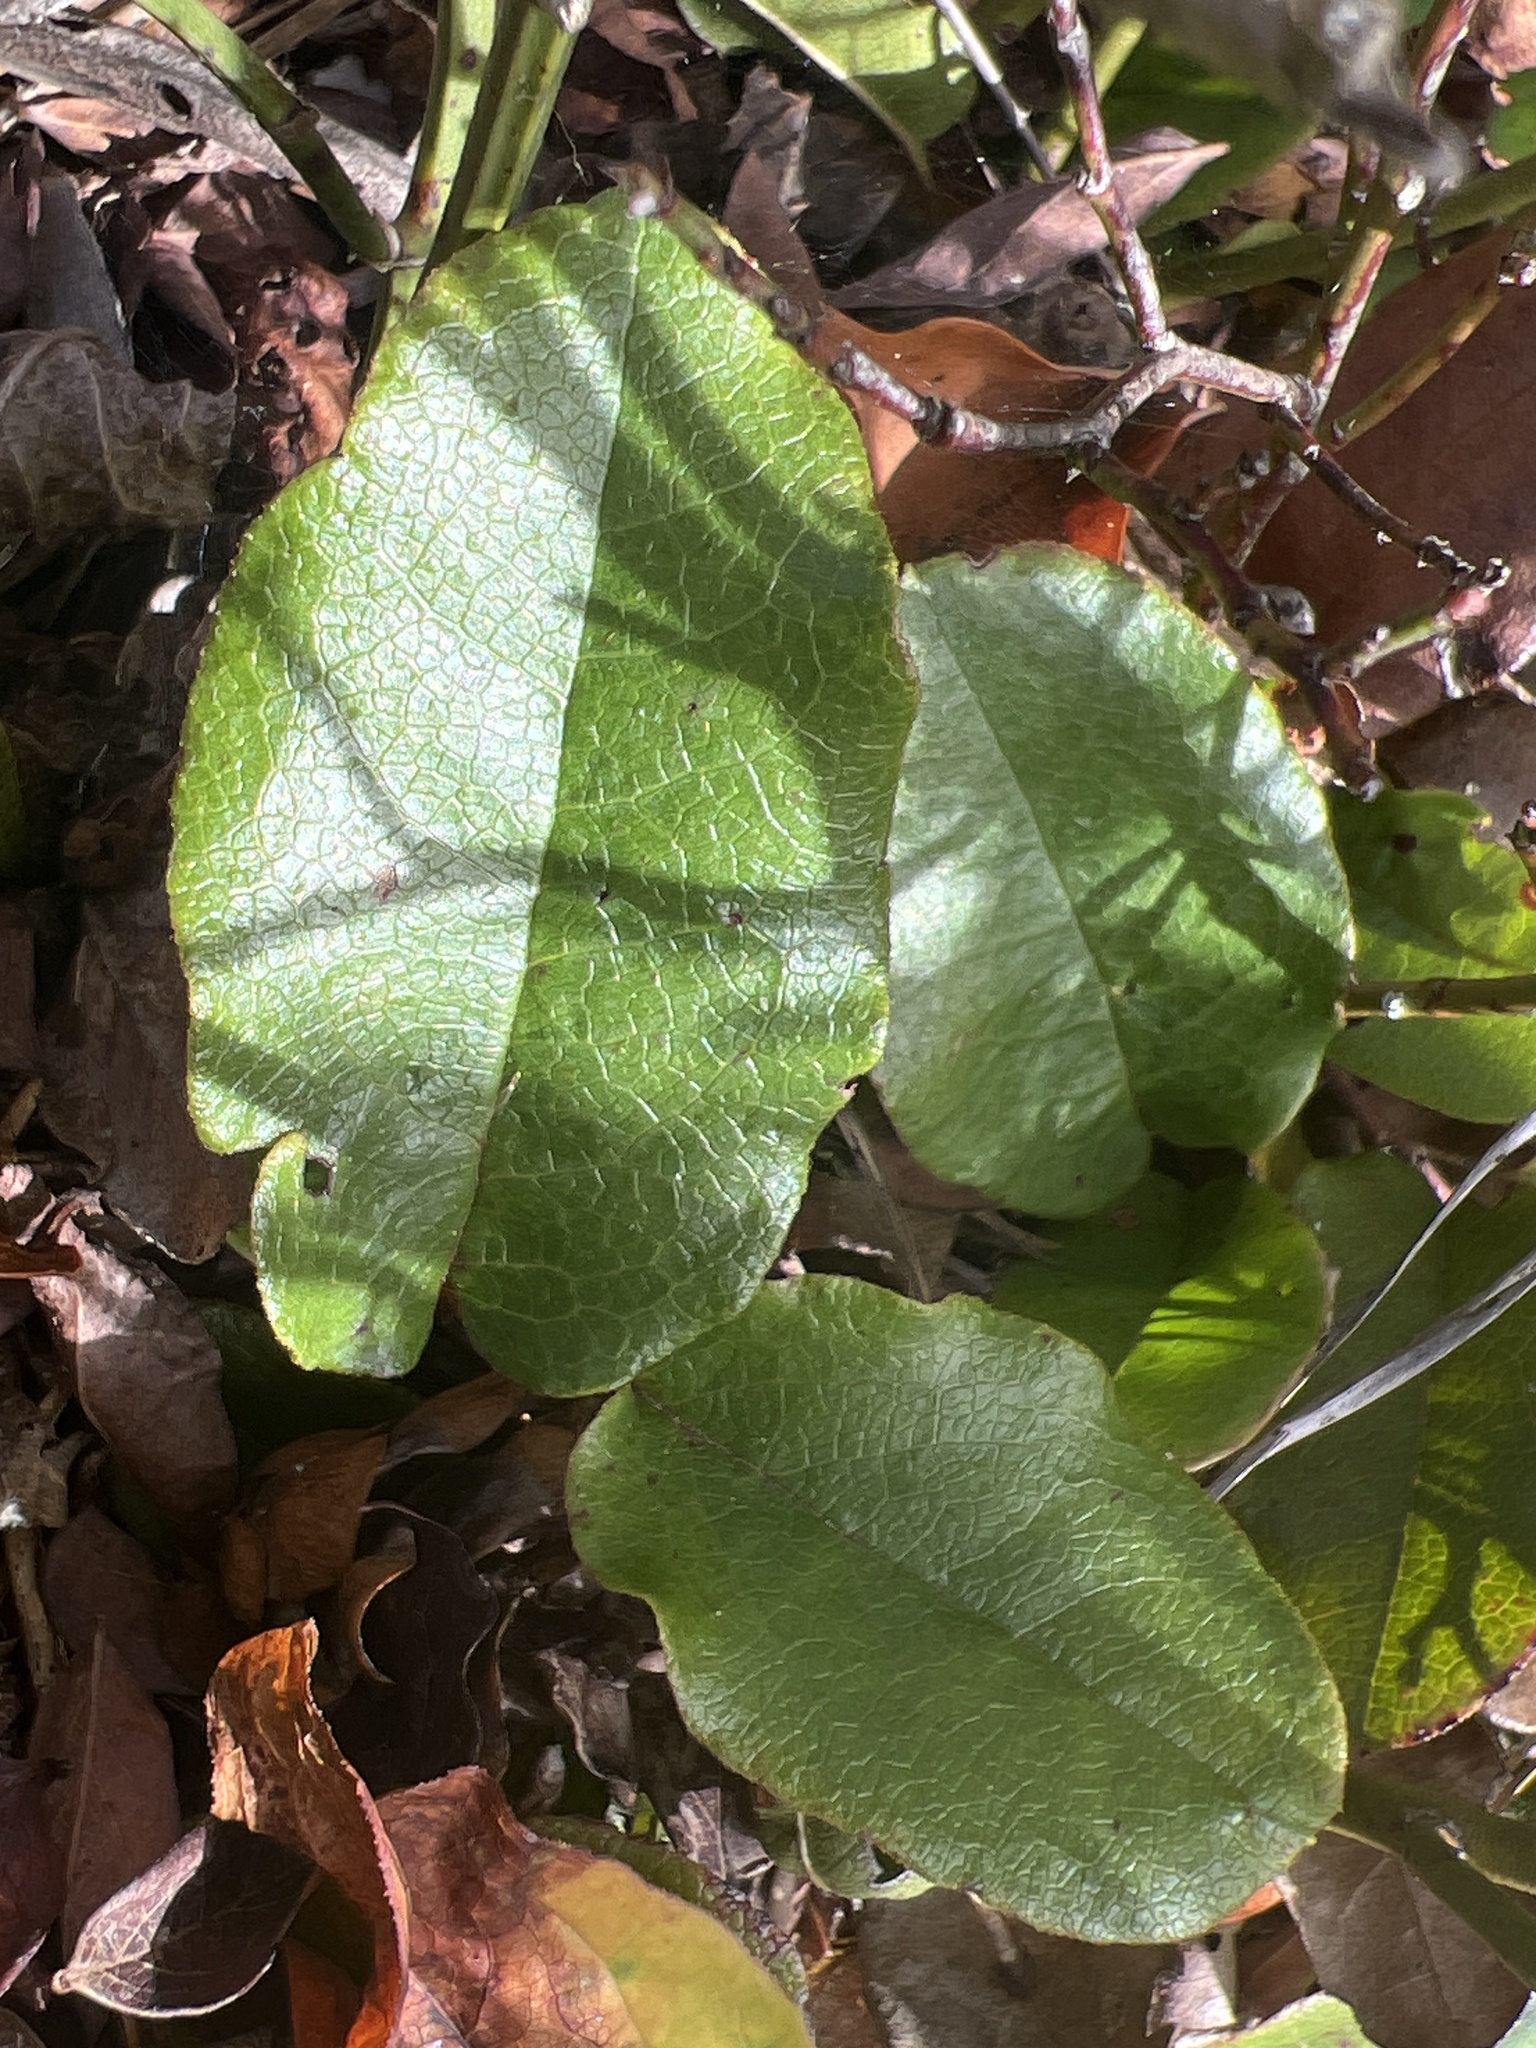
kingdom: Plantae
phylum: Tracheophyta
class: Magnoliopsida
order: Ericales
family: Ericaceae
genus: Epigaea
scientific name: Epigaea repens
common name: Gravelroot
